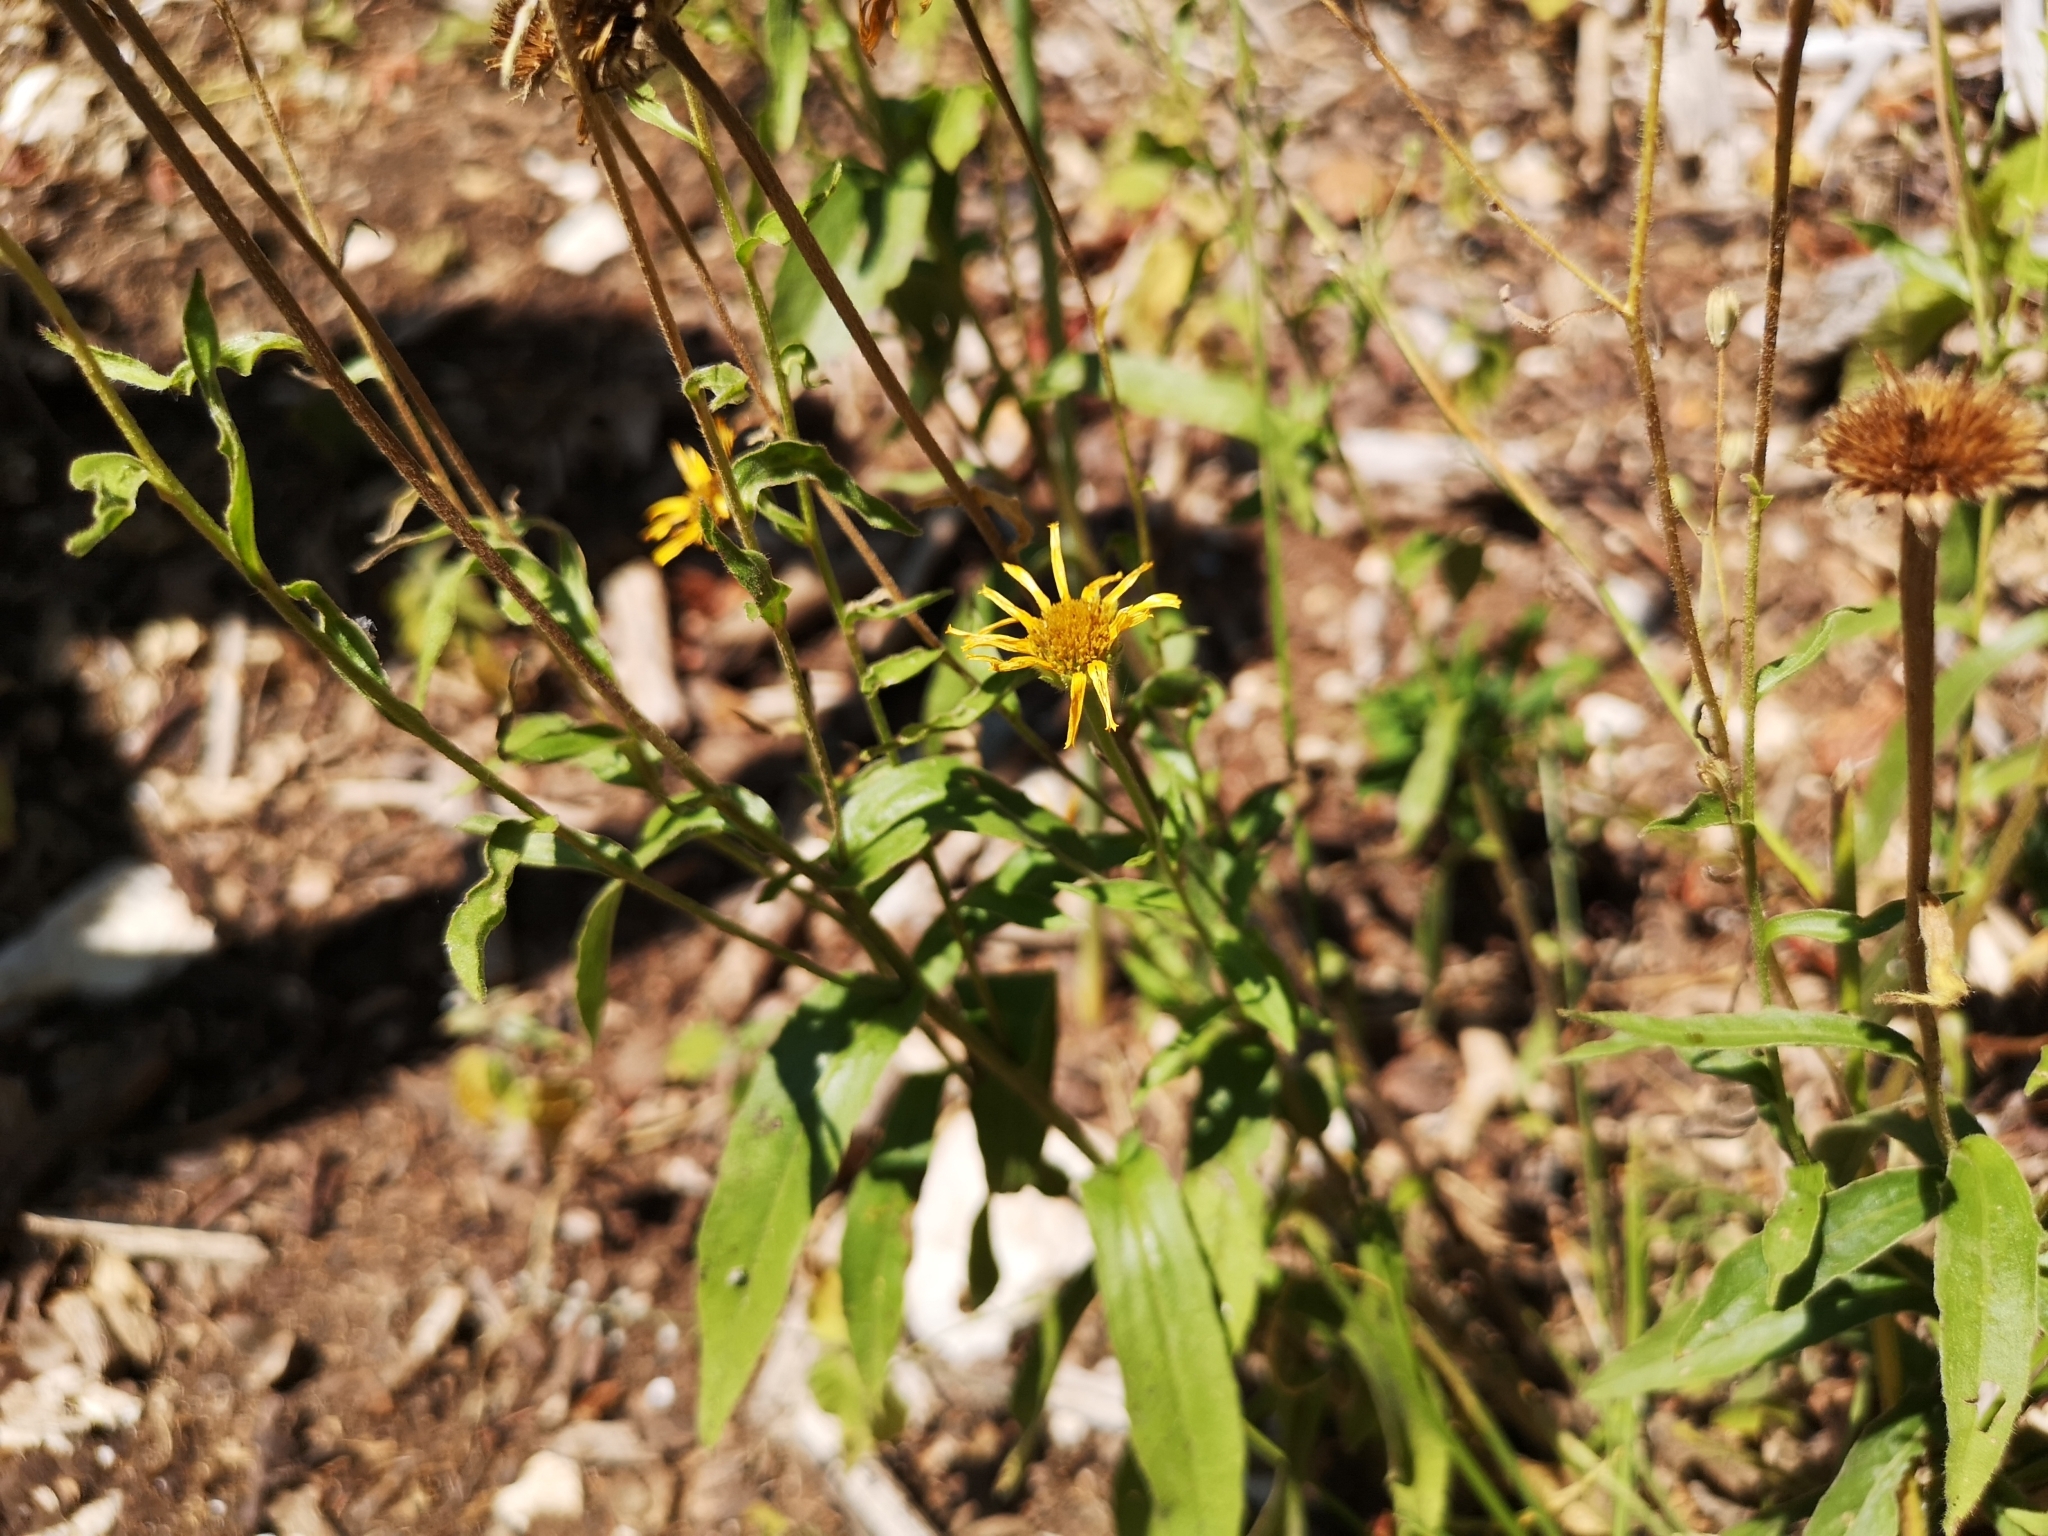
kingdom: Plantae
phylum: Tracheophyta
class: Magnoliopsida
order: Asterales
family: Asteraceae
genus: Buphthalmum
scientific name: Buphthalmum salicifolium
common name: Willow-leaved yellow-oxeye
